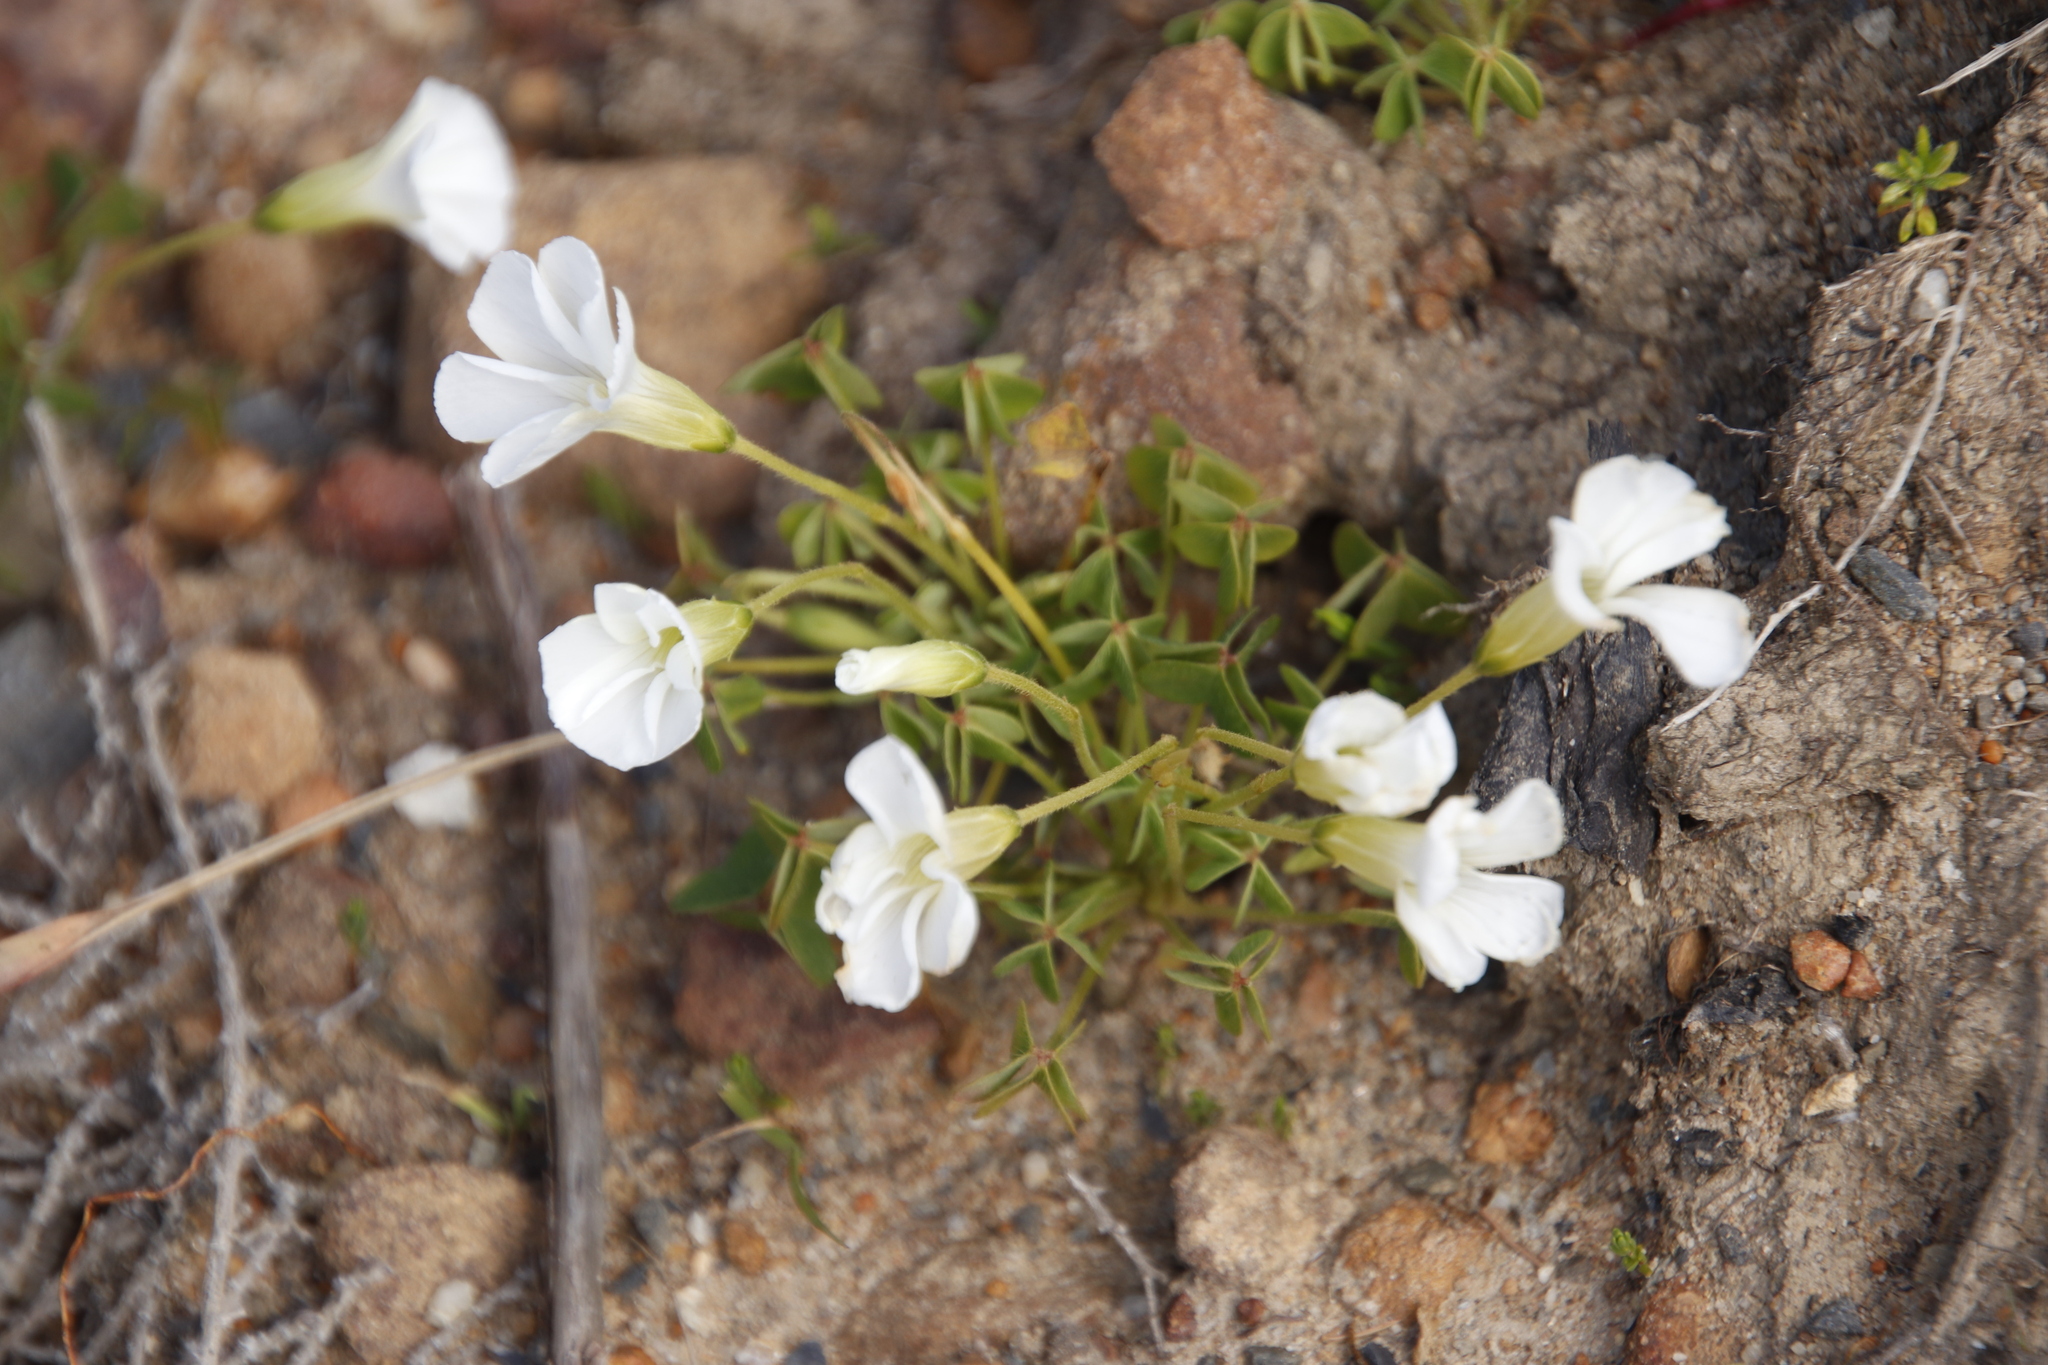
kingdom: Plantae
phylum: Tracheophyta
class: Magnoliopsida
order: Oxalidales
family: Oxalidaceae
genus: Oxalis
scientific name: Oxalis lanata
